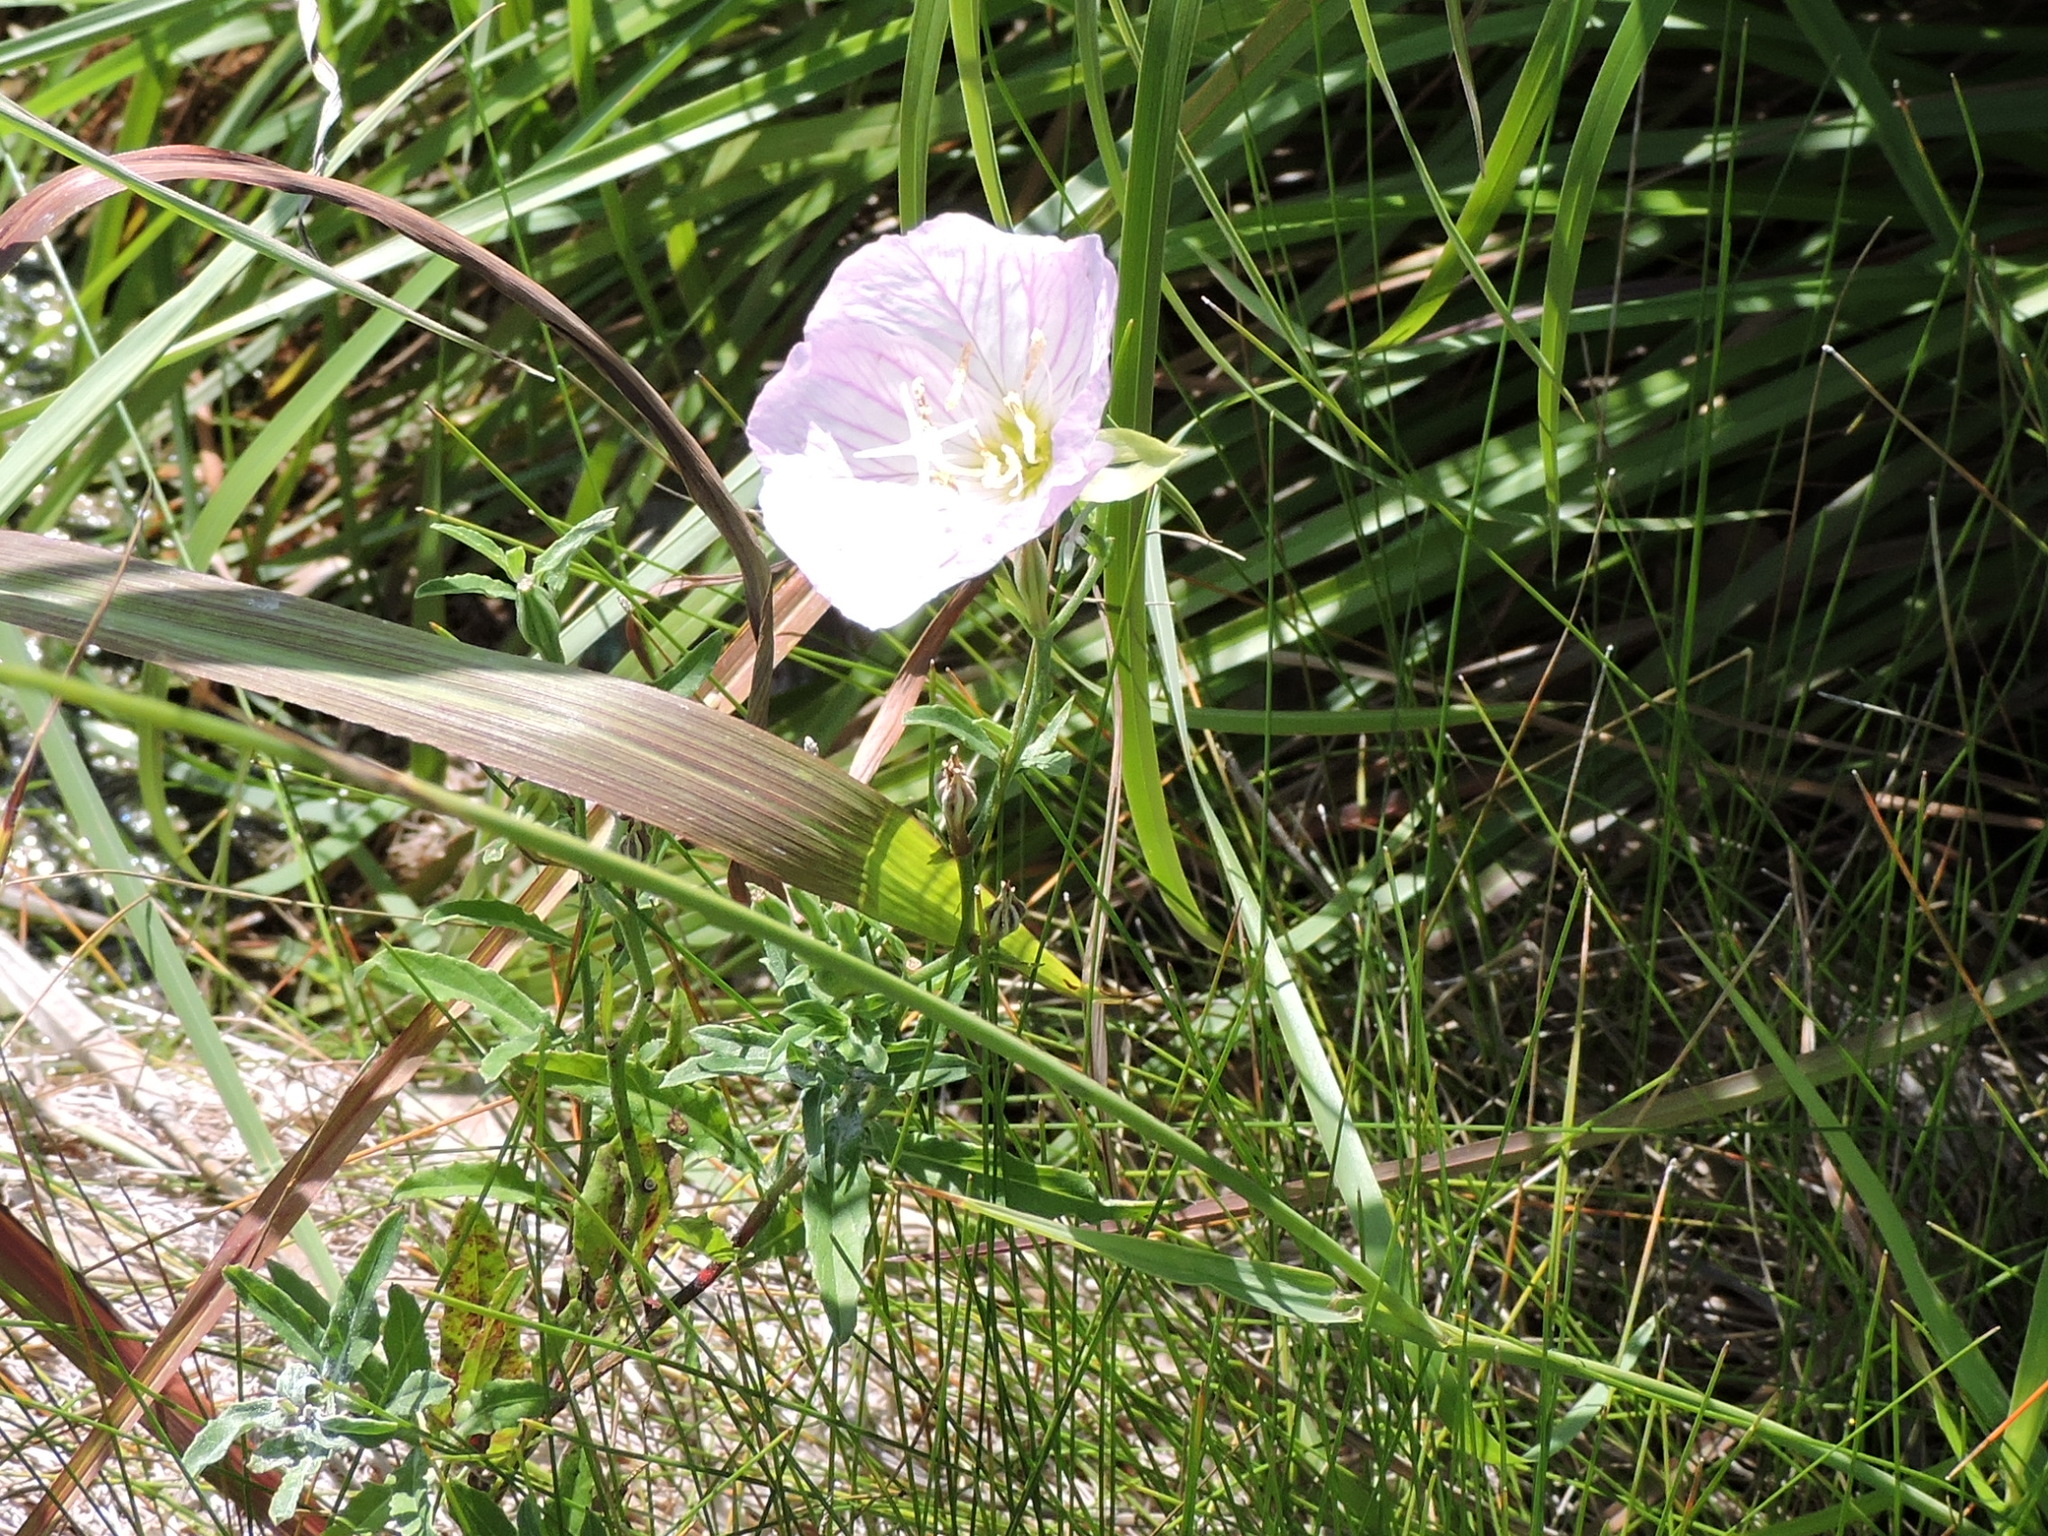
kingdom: Plantae
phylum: Tracheophyta
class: Magnoliopsida
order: Myrtales
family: Onagraceae
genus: Oenothera
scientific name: Oenothera speciosa
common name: White evening-primrose
